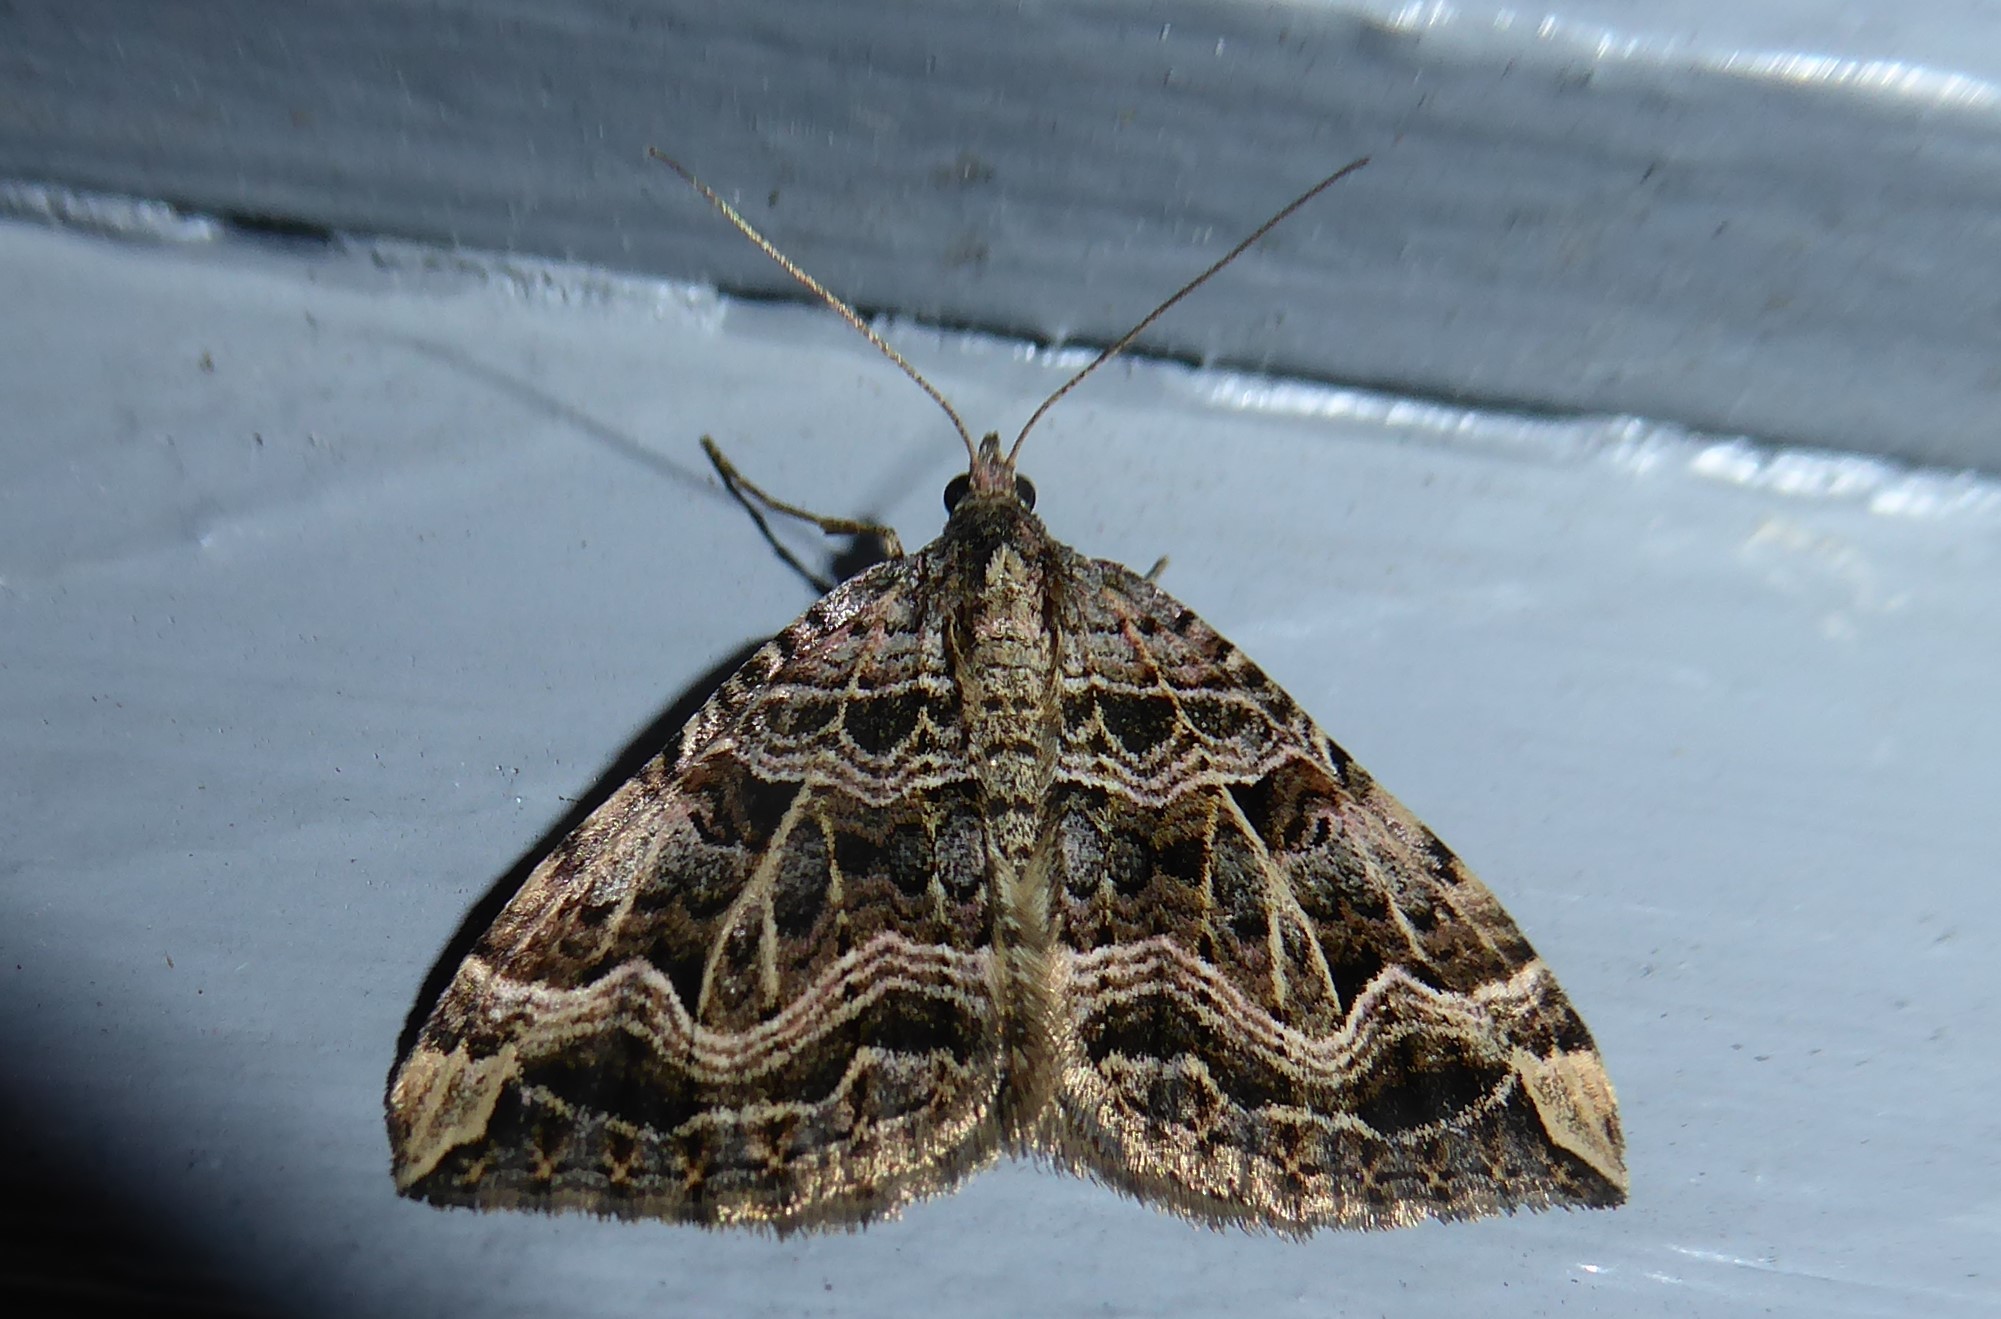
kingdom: Animalia
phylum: Arthropoda
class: Insecta
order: Lepidoptera
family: Geometridae
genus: Xanthorhoe
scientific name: Xanthorhoe semifissata
